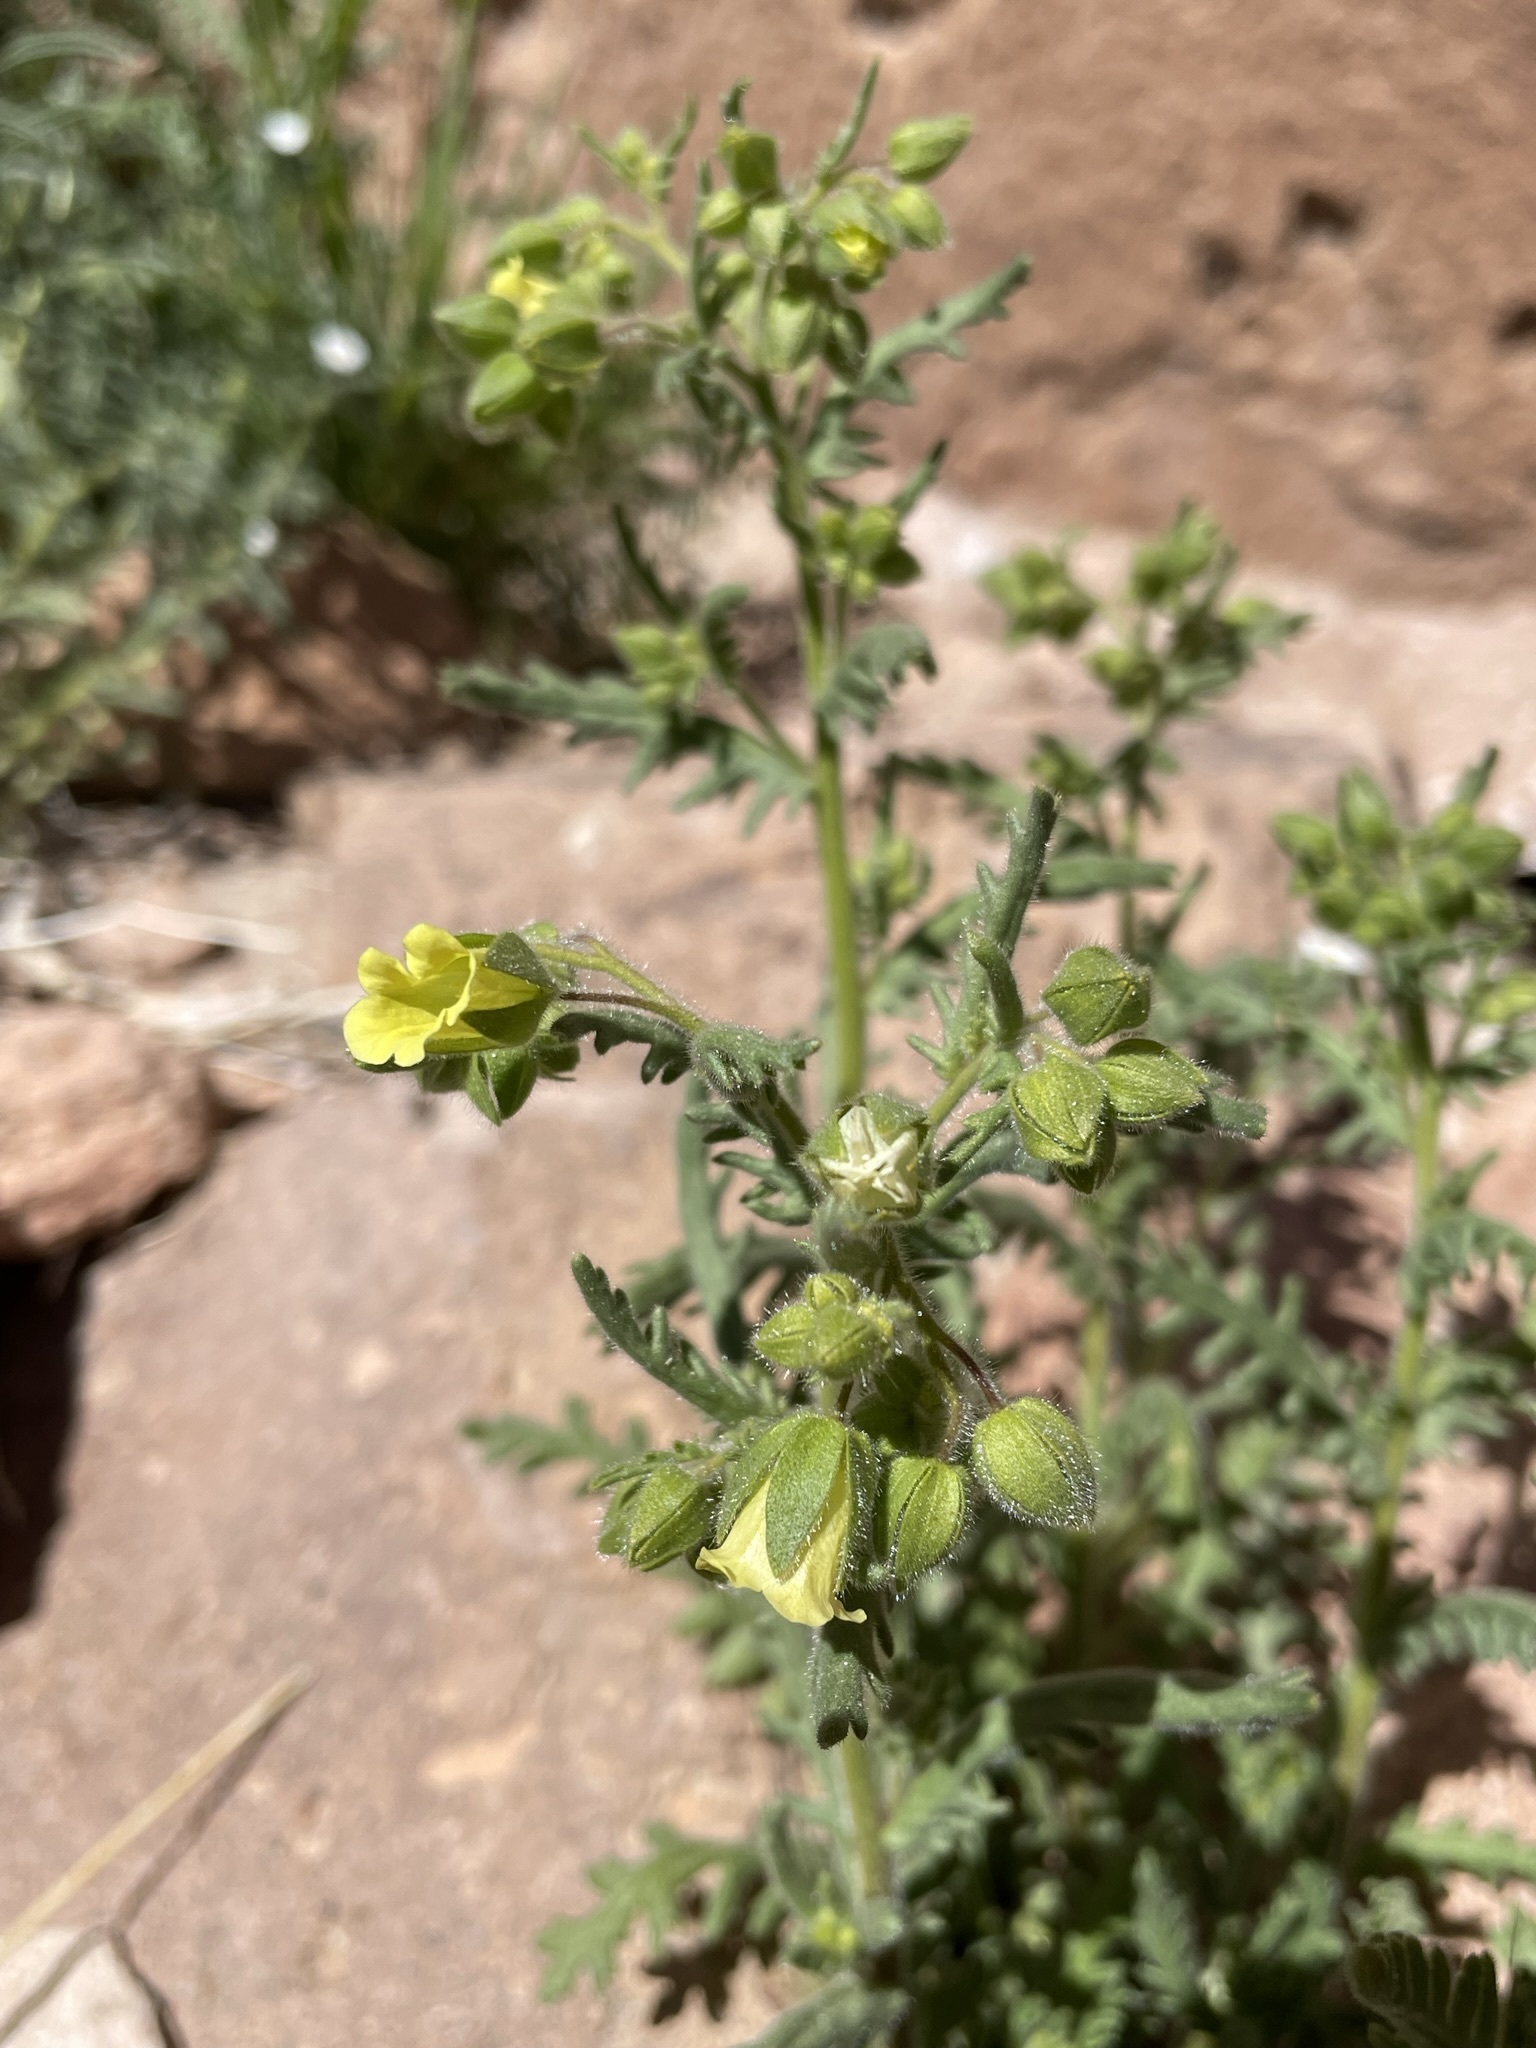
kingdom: Plantae
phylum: Tracheophyta
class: Magnoliopsida
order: Boraginales
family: Hydrophyllaceae
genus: Emmenanthe
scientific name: Emmenanthe penduliflora
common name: Whispering-bells
